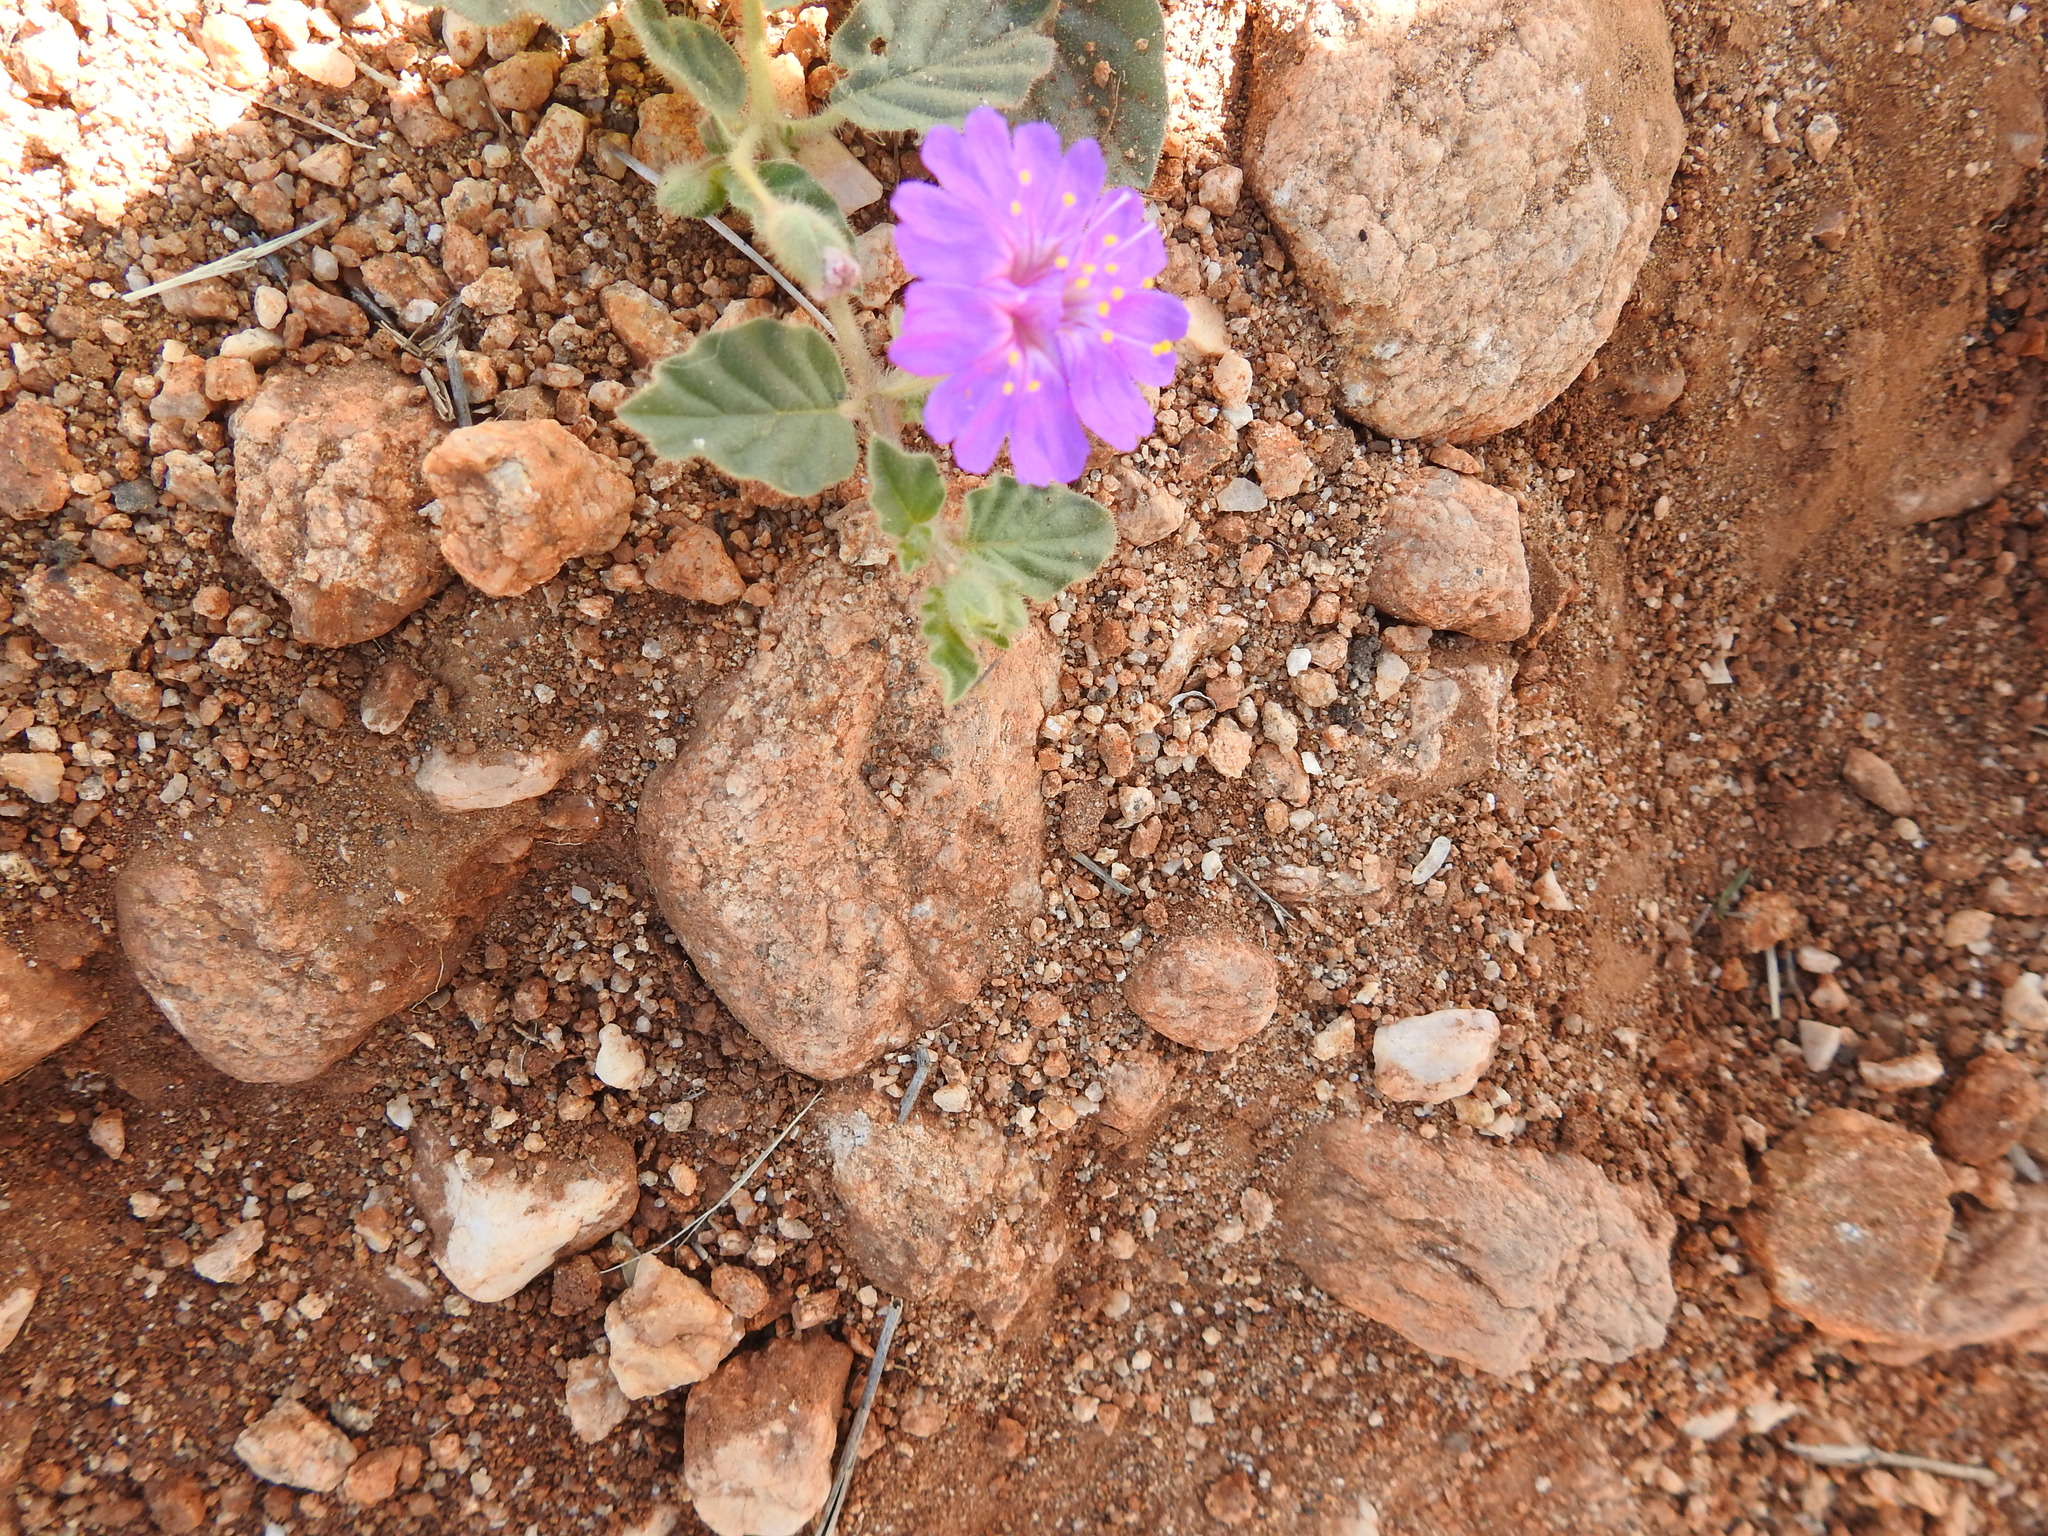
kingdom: Plantae
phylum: Tracheophyta
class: Magnoliopsida
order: Caryophyllales
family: Nyctaginaceae
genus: Allionia
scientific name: Allionia incarnata
